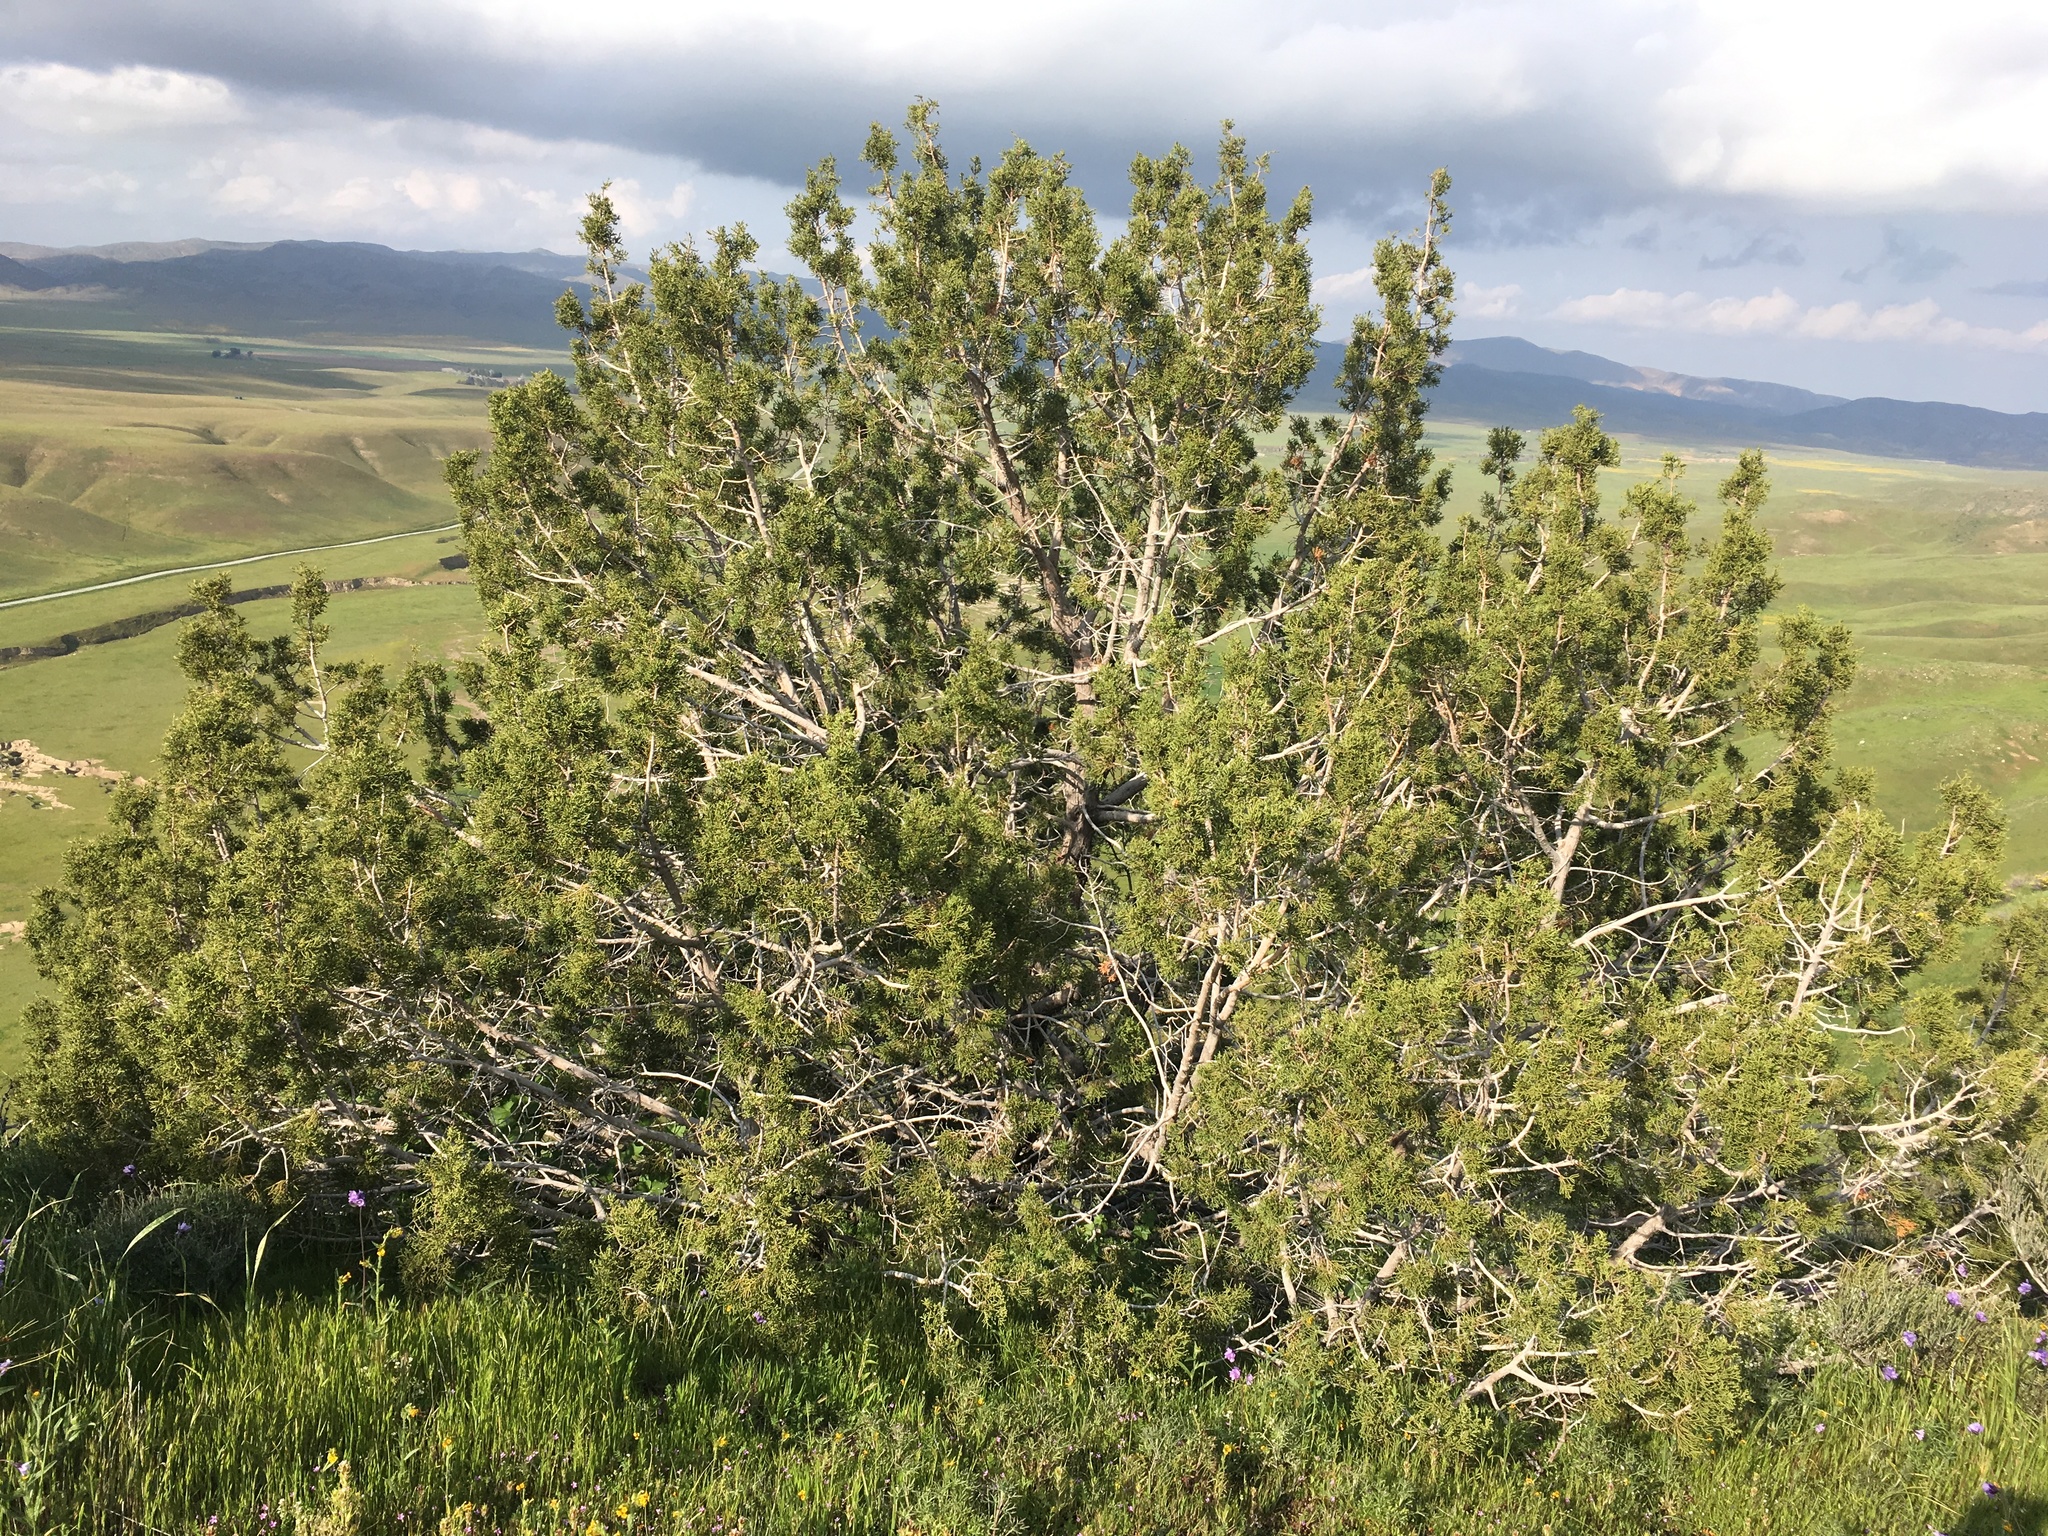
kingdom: Plantae
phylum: Tracheophyta
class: Pinopsida
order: Pinales
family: Cupressaceae
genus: Juniperus
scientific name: Juniperus californica
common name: California juniper
